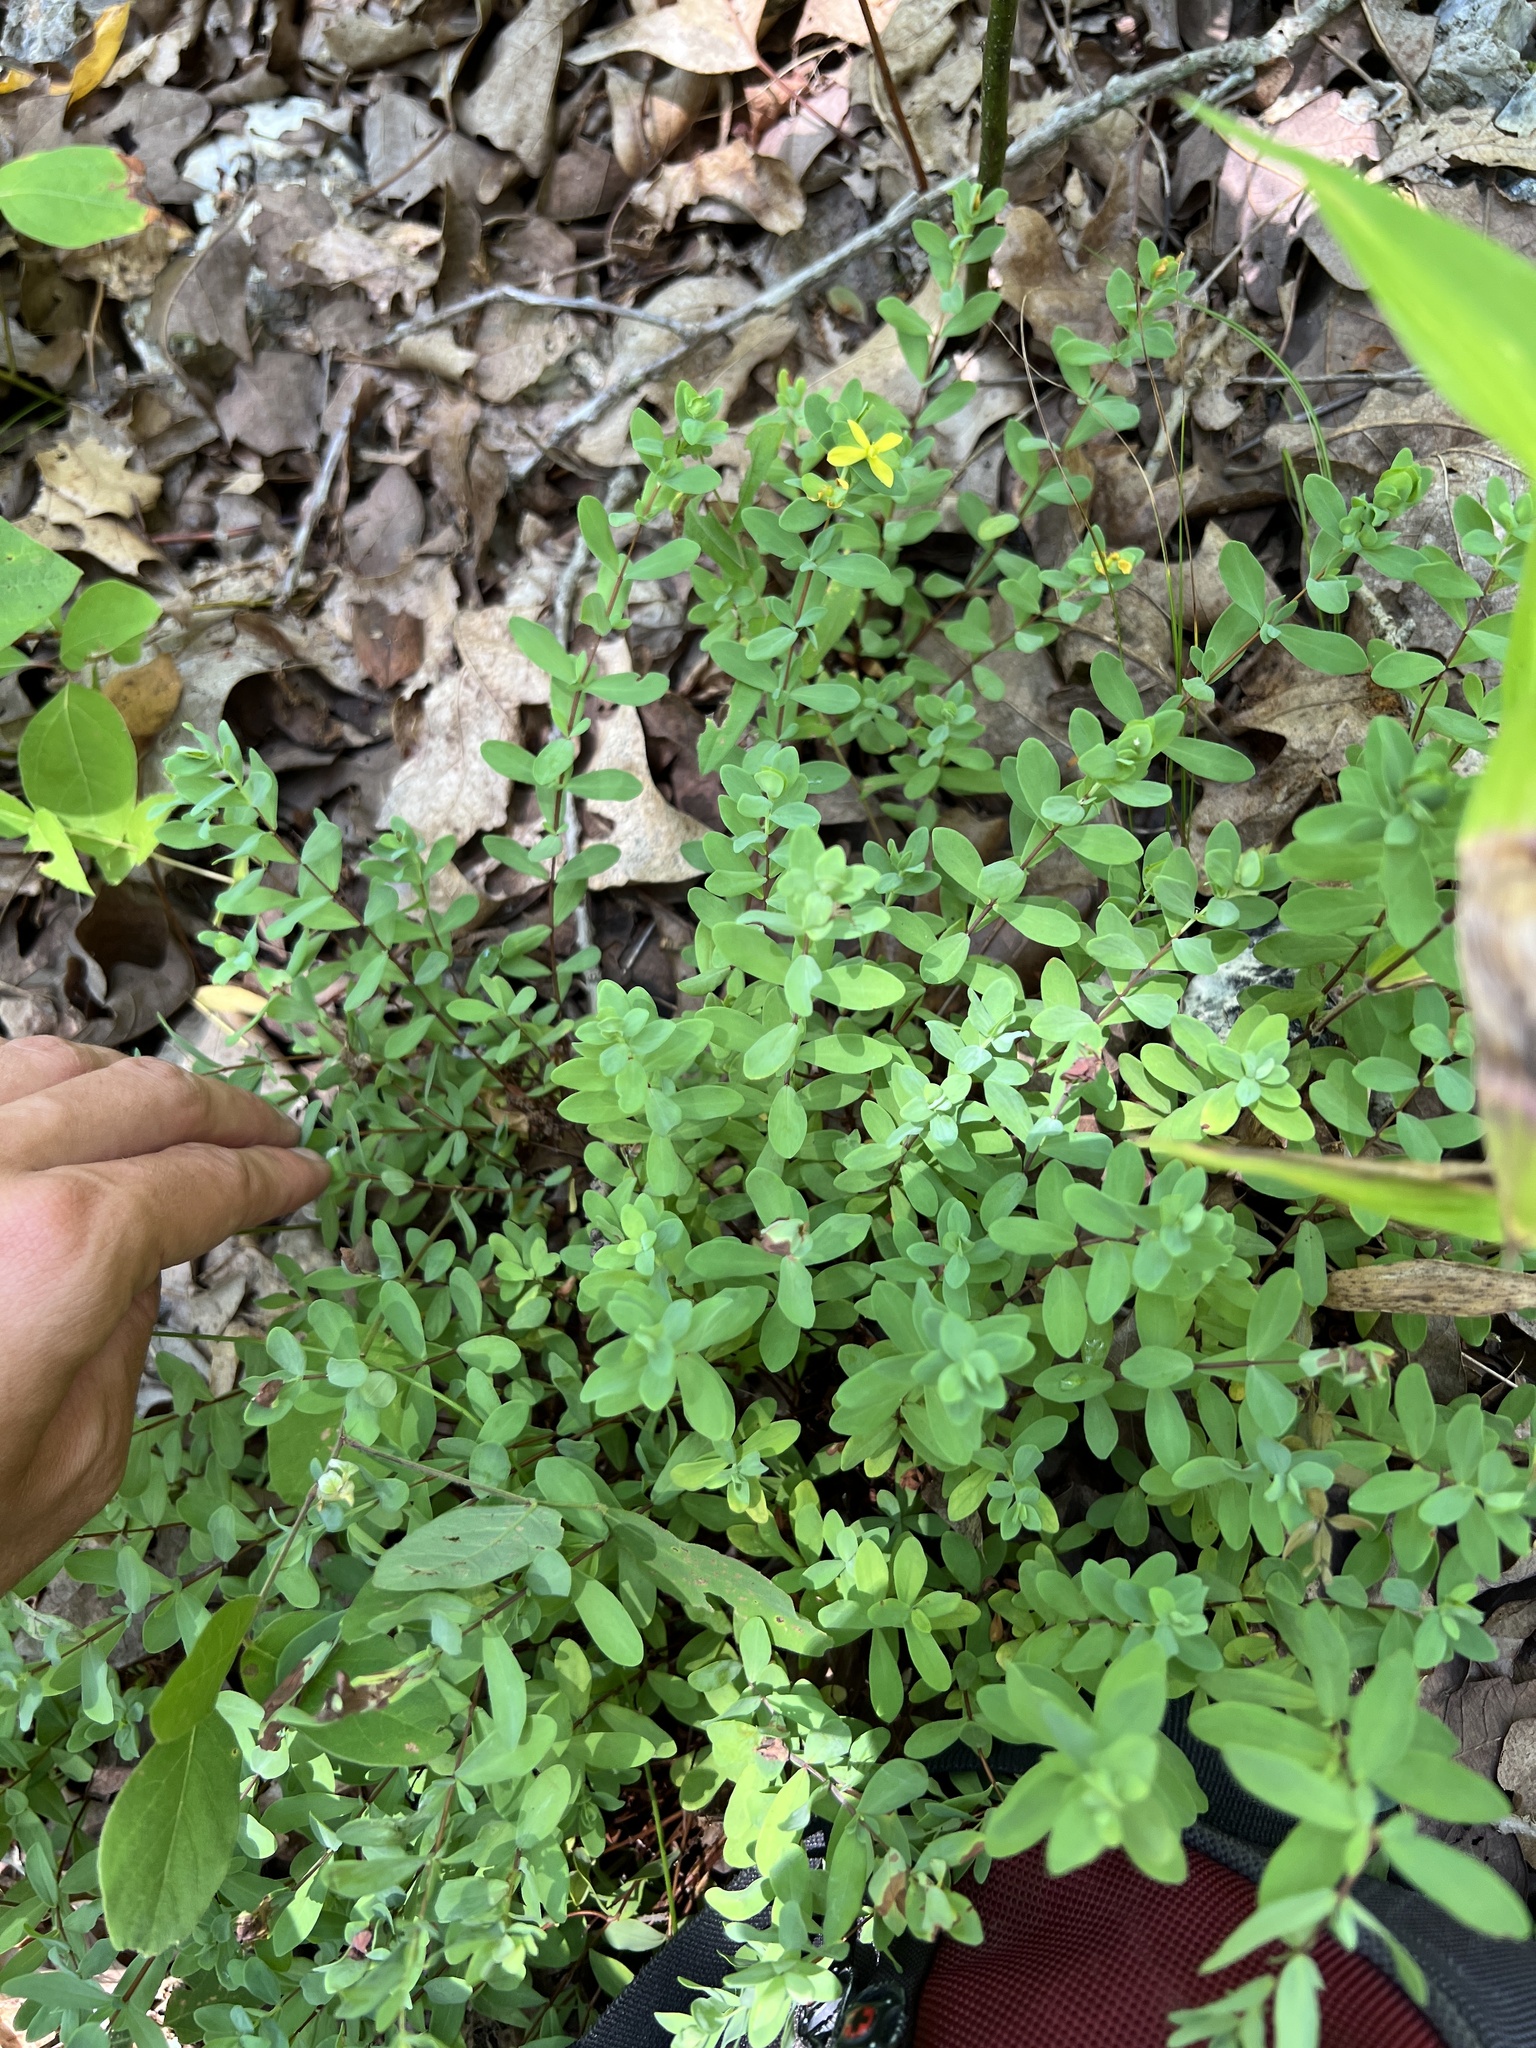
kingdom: Plantae
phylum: Tracheophyta
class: Magnoliopsida
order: Malpighiales
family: Hypericaceae
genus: Hypericum
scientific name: Hypericum hypericoides
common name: St. andrew's cross
